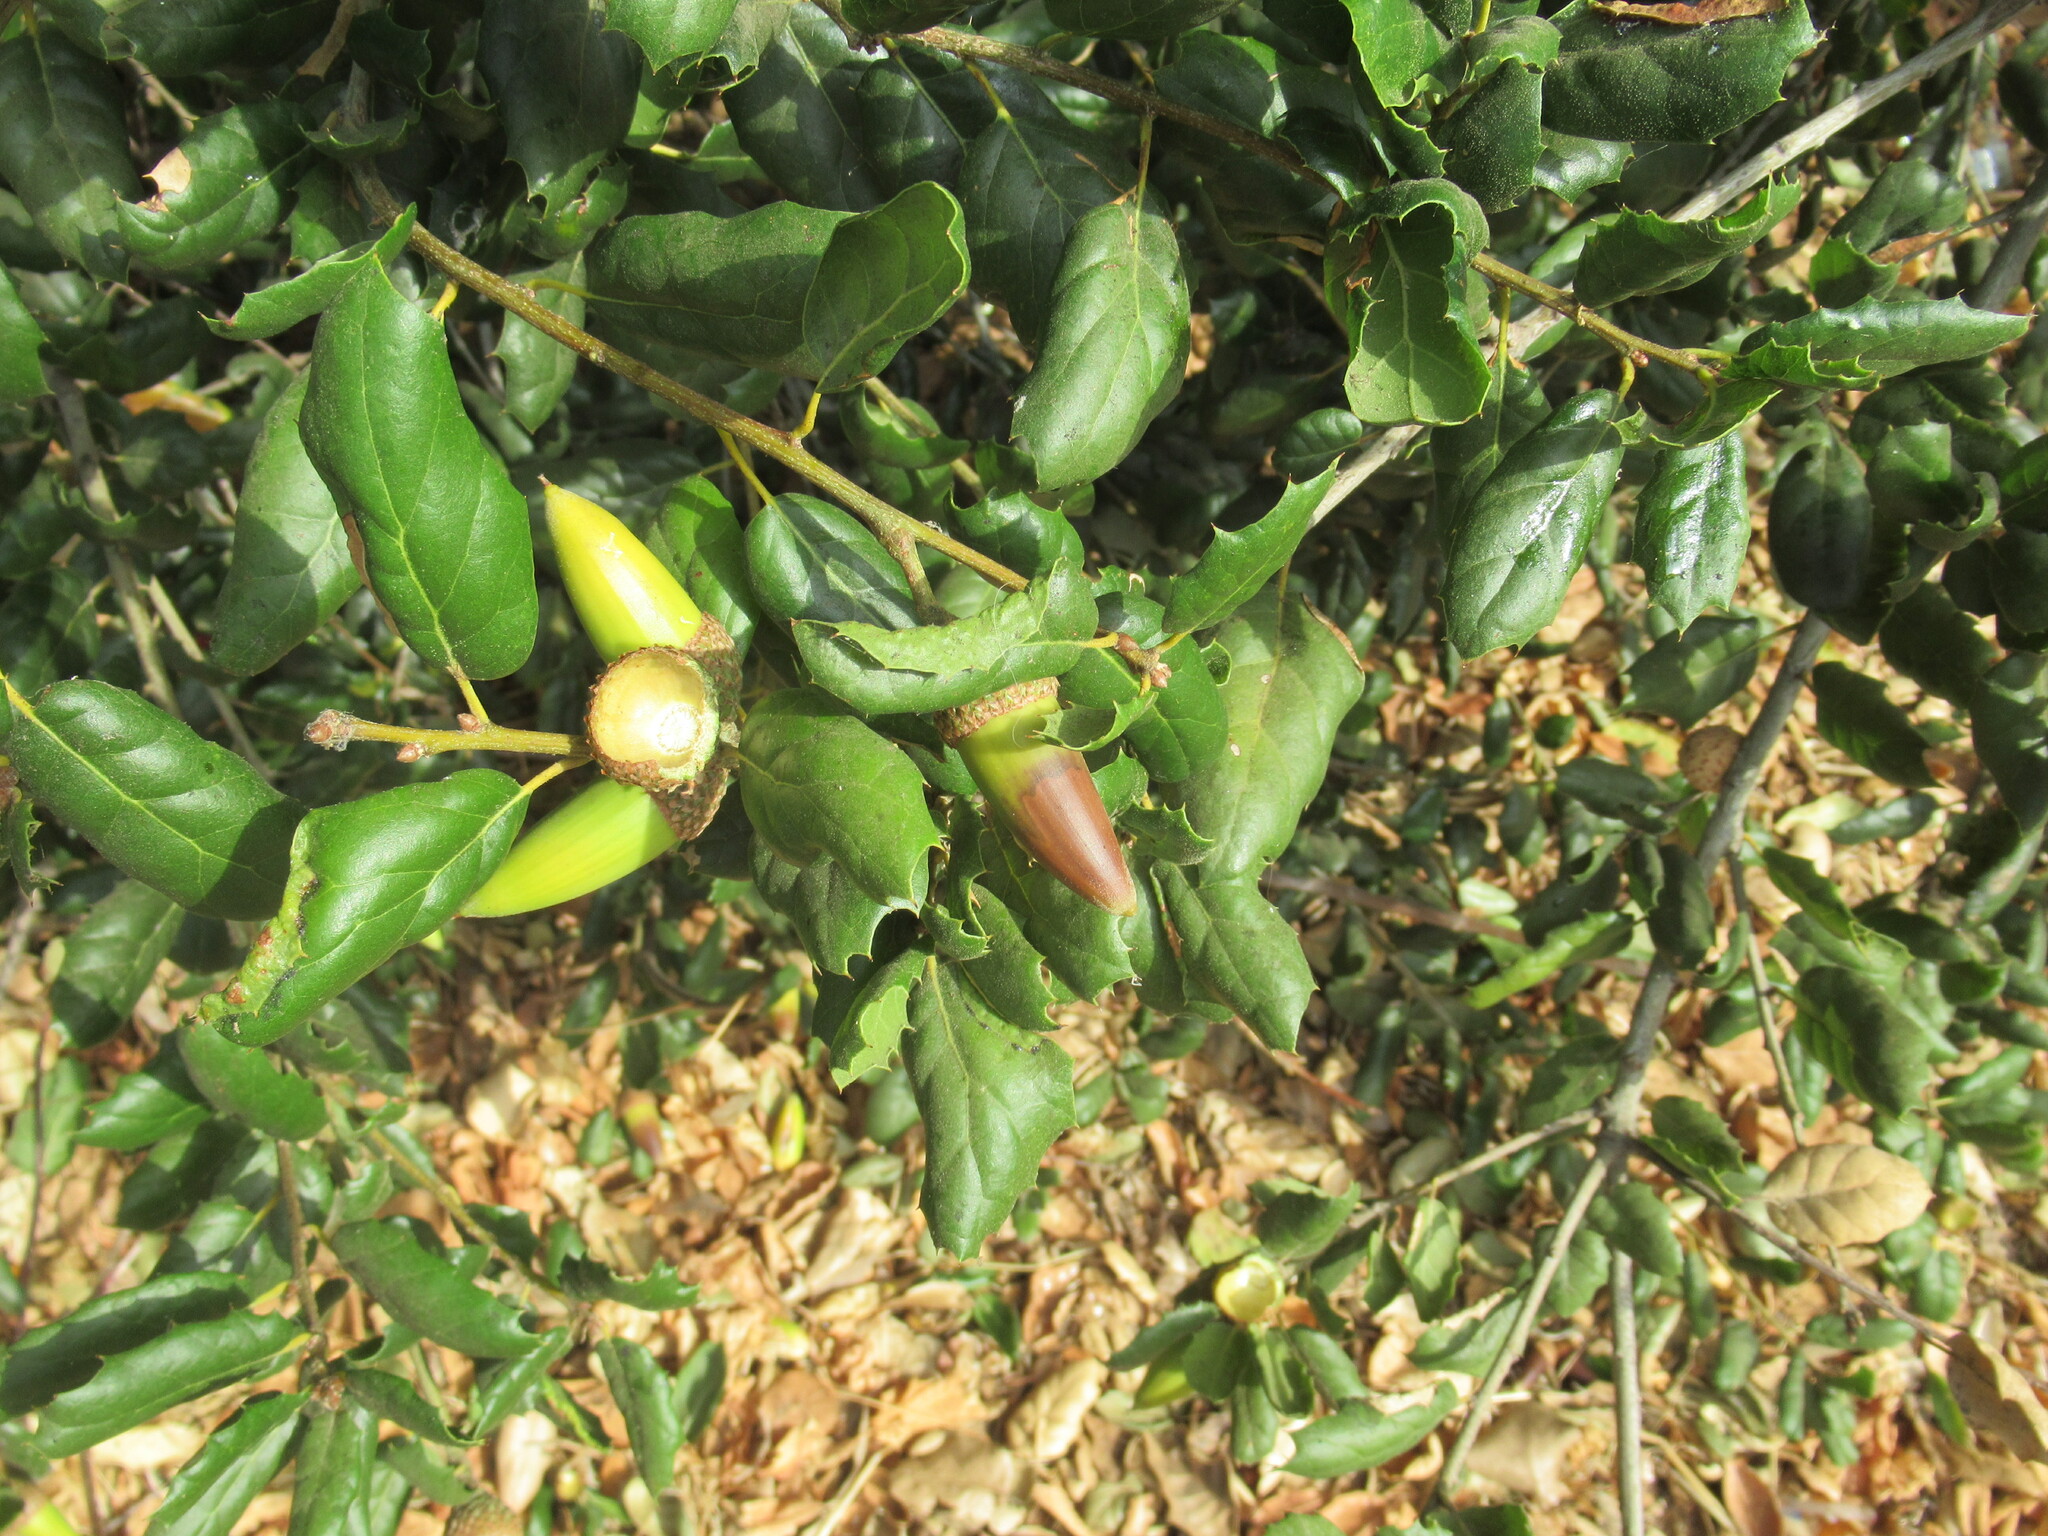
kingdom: Plantae
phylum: Tracheophyta
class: Magnoliopsida
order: Fagales
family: Fagaceae
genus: Quercus
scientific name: Quercus agrifolia
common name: California live oak
